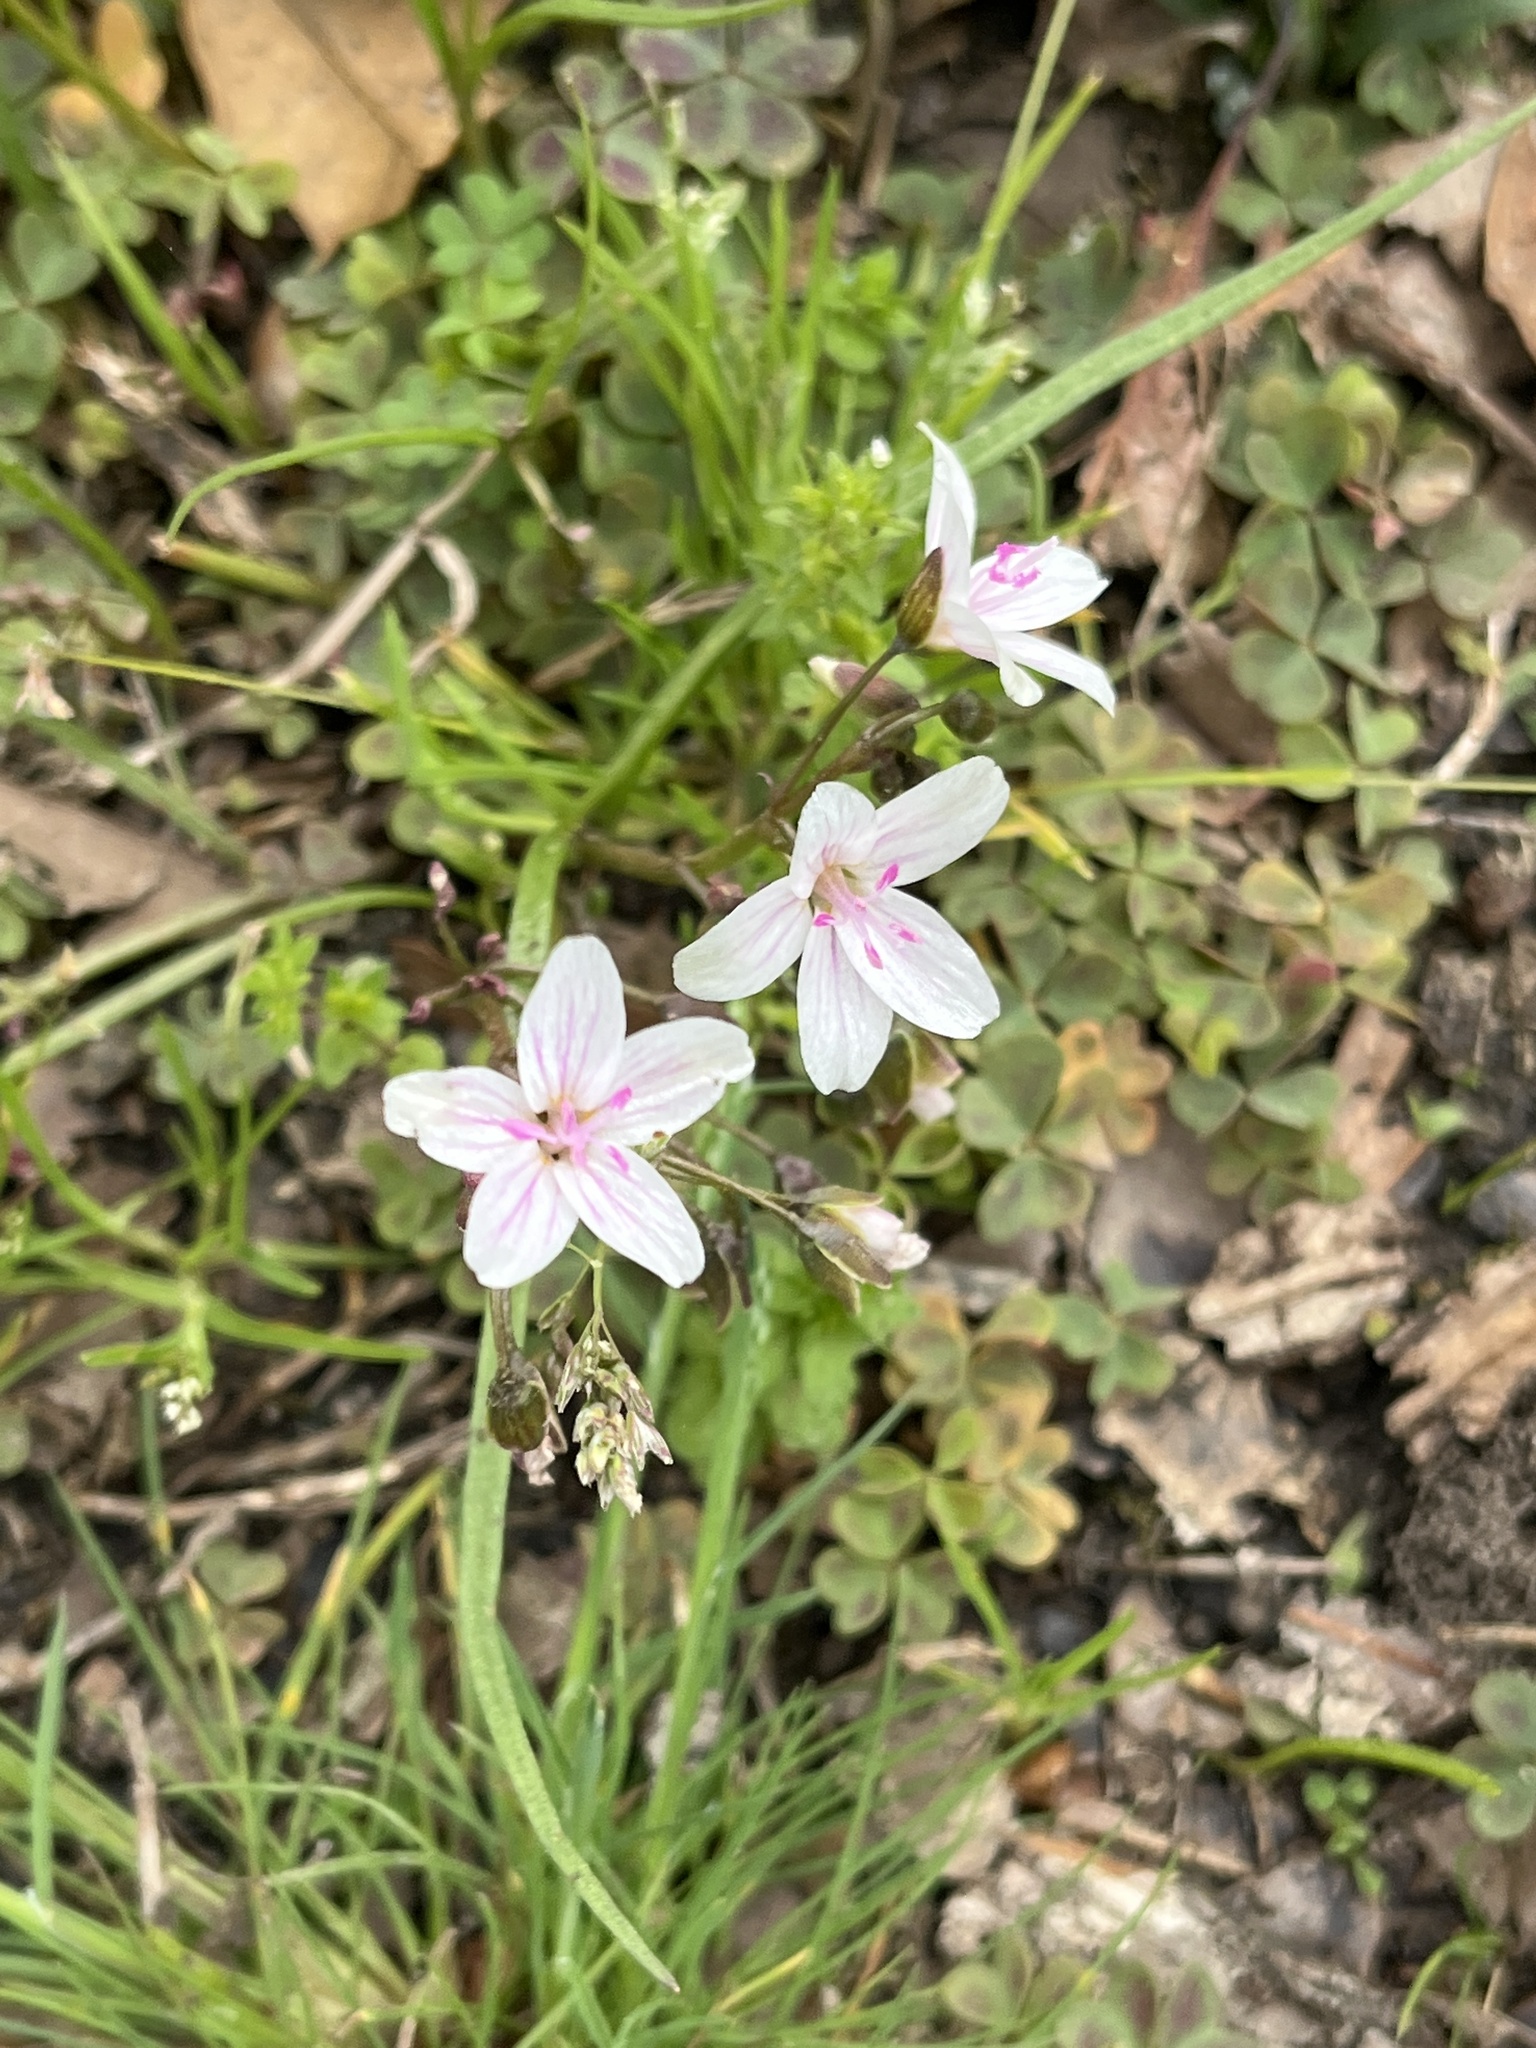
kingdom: Plantae
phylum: Tracheophyta
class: Magnoliopsida
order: Caryophyllales
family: Montiaceae
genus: Claytonia
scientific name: Claytonia virginica
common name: Virginia springbeauty
